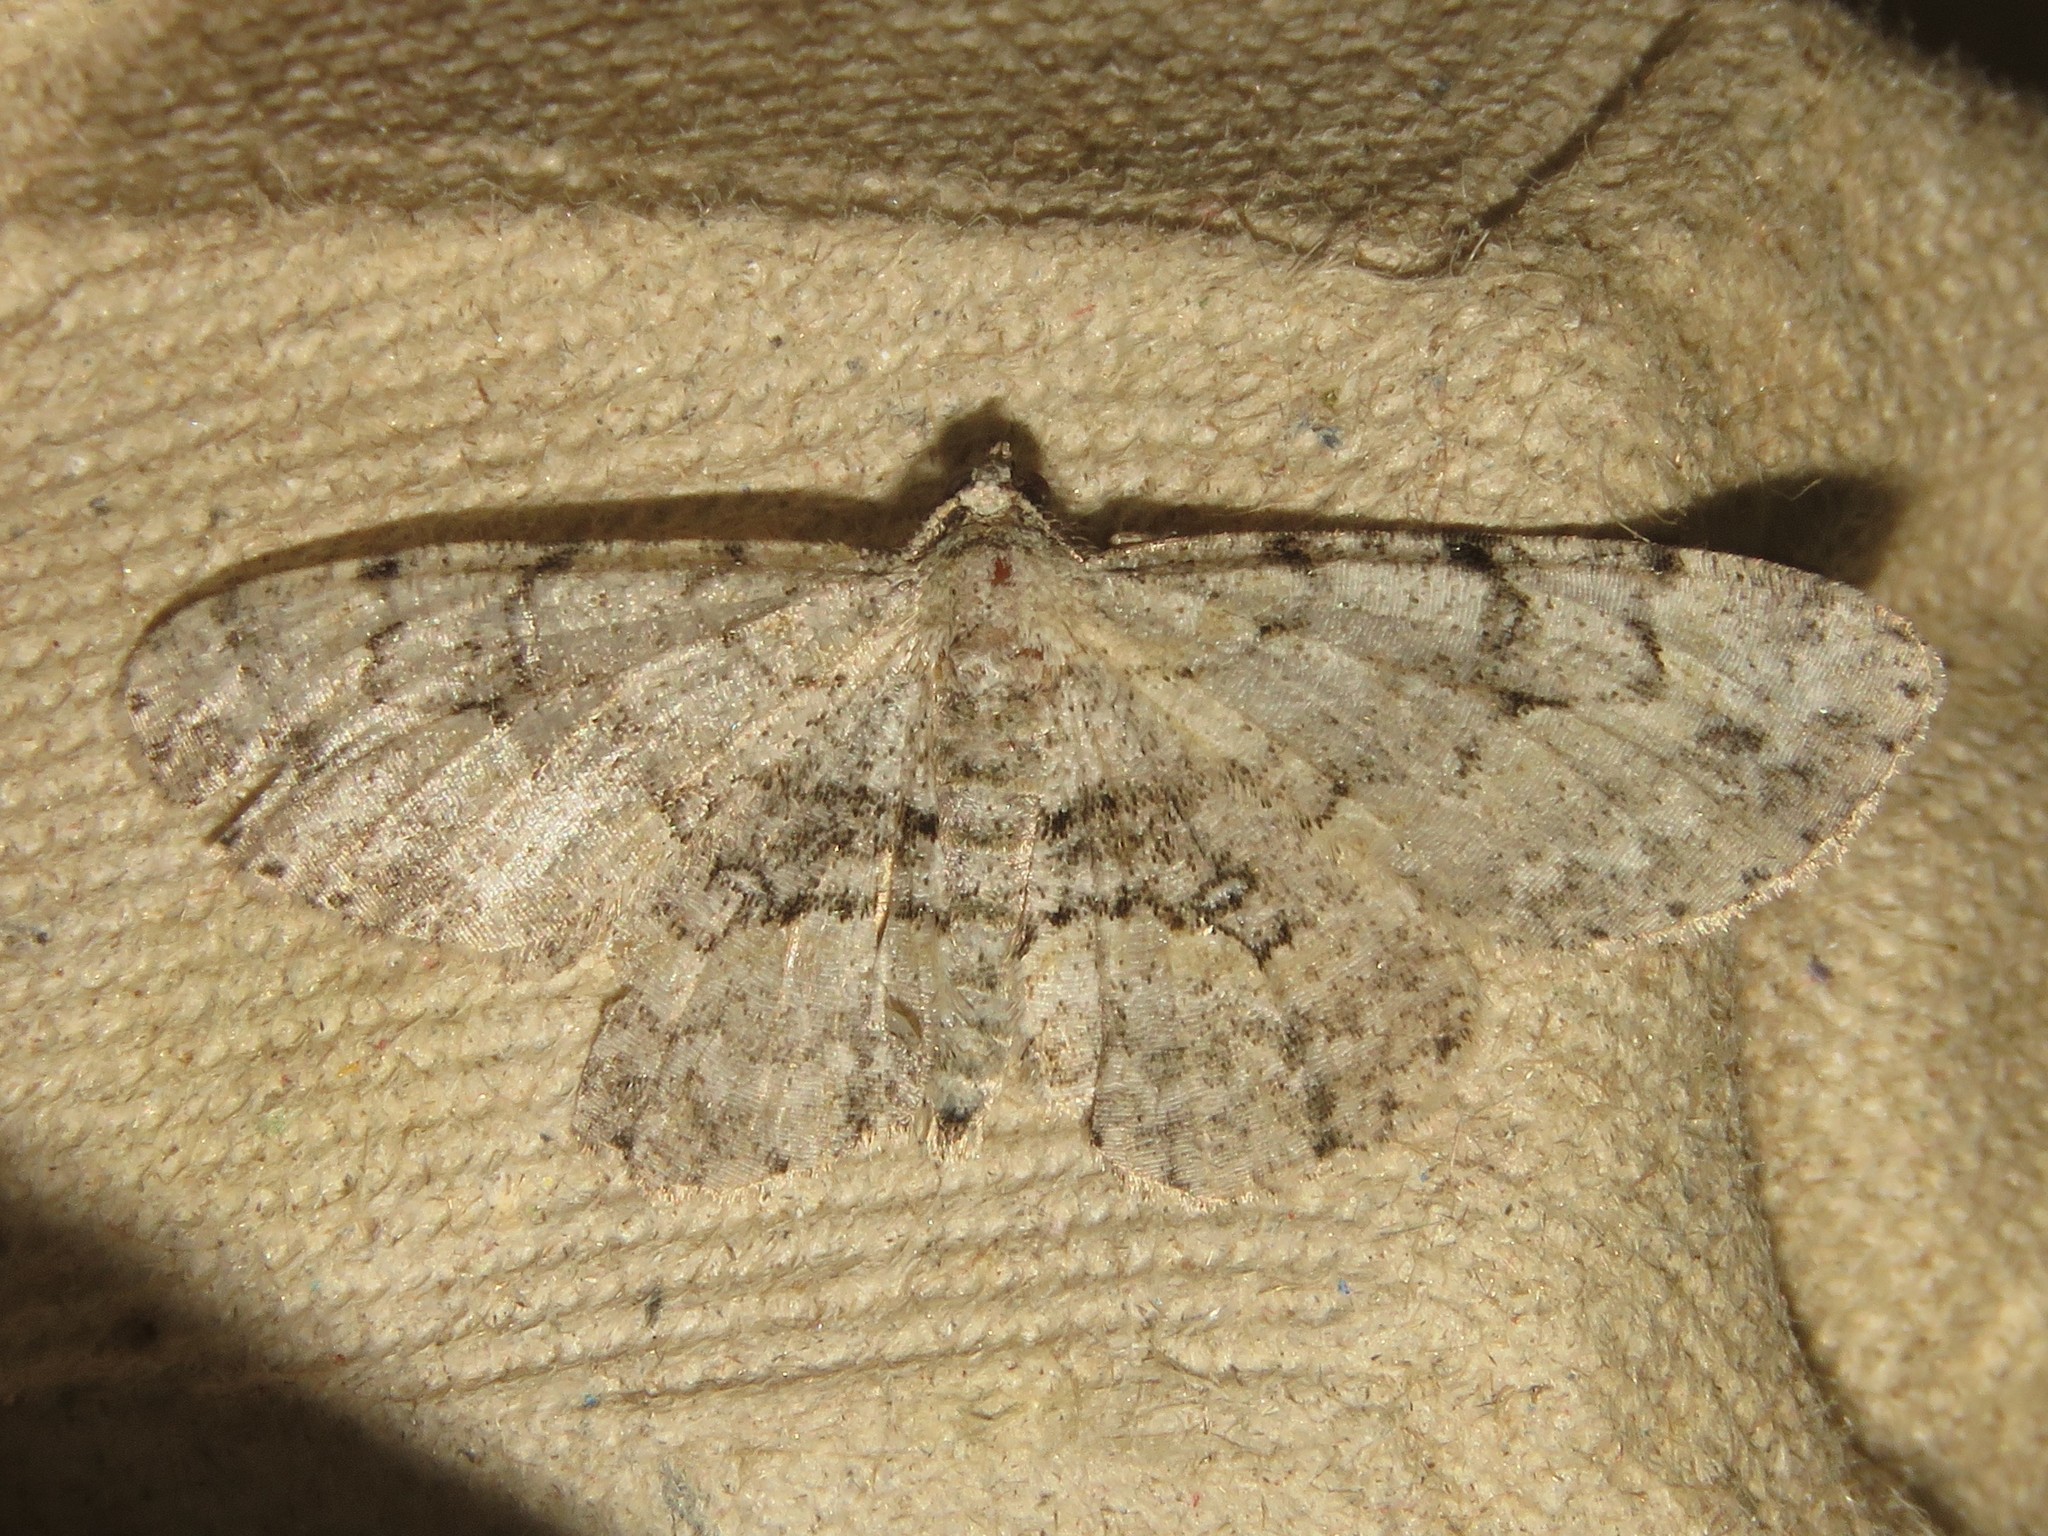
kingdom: Animalia
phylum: Arthropoda
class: Insecta
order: Lepidoptera
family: Geometridae
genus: Iridopsis
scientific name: Iridopsis ephyraria
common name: Pale-winged gray
